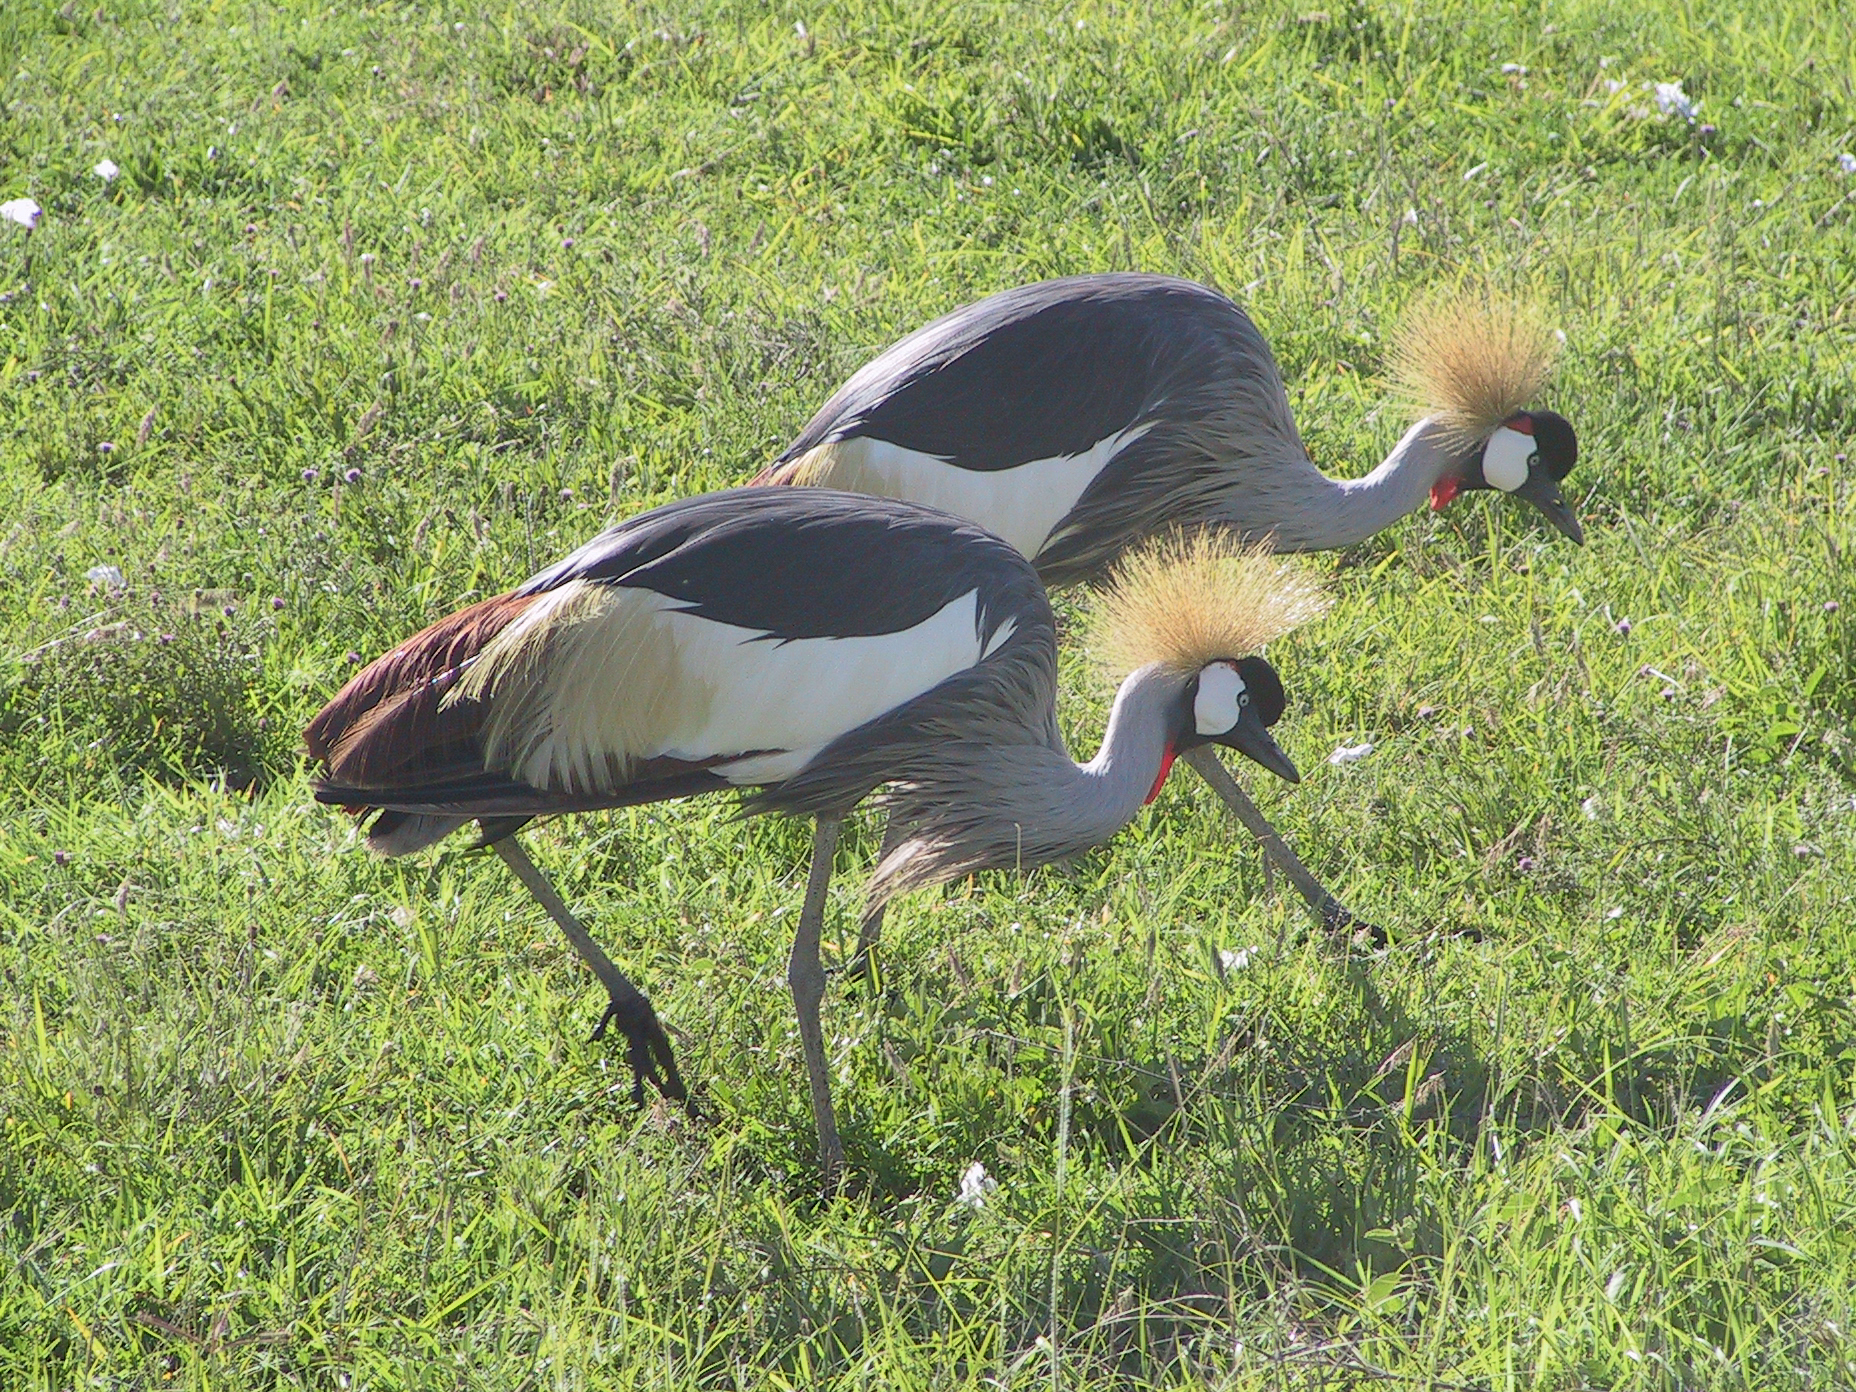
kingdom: Animalia
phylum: Chordata
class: Aves
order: Gruiformes
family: Gruidae
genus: Balearica
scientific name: Balearica regulorum
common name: Grey crowned crane
